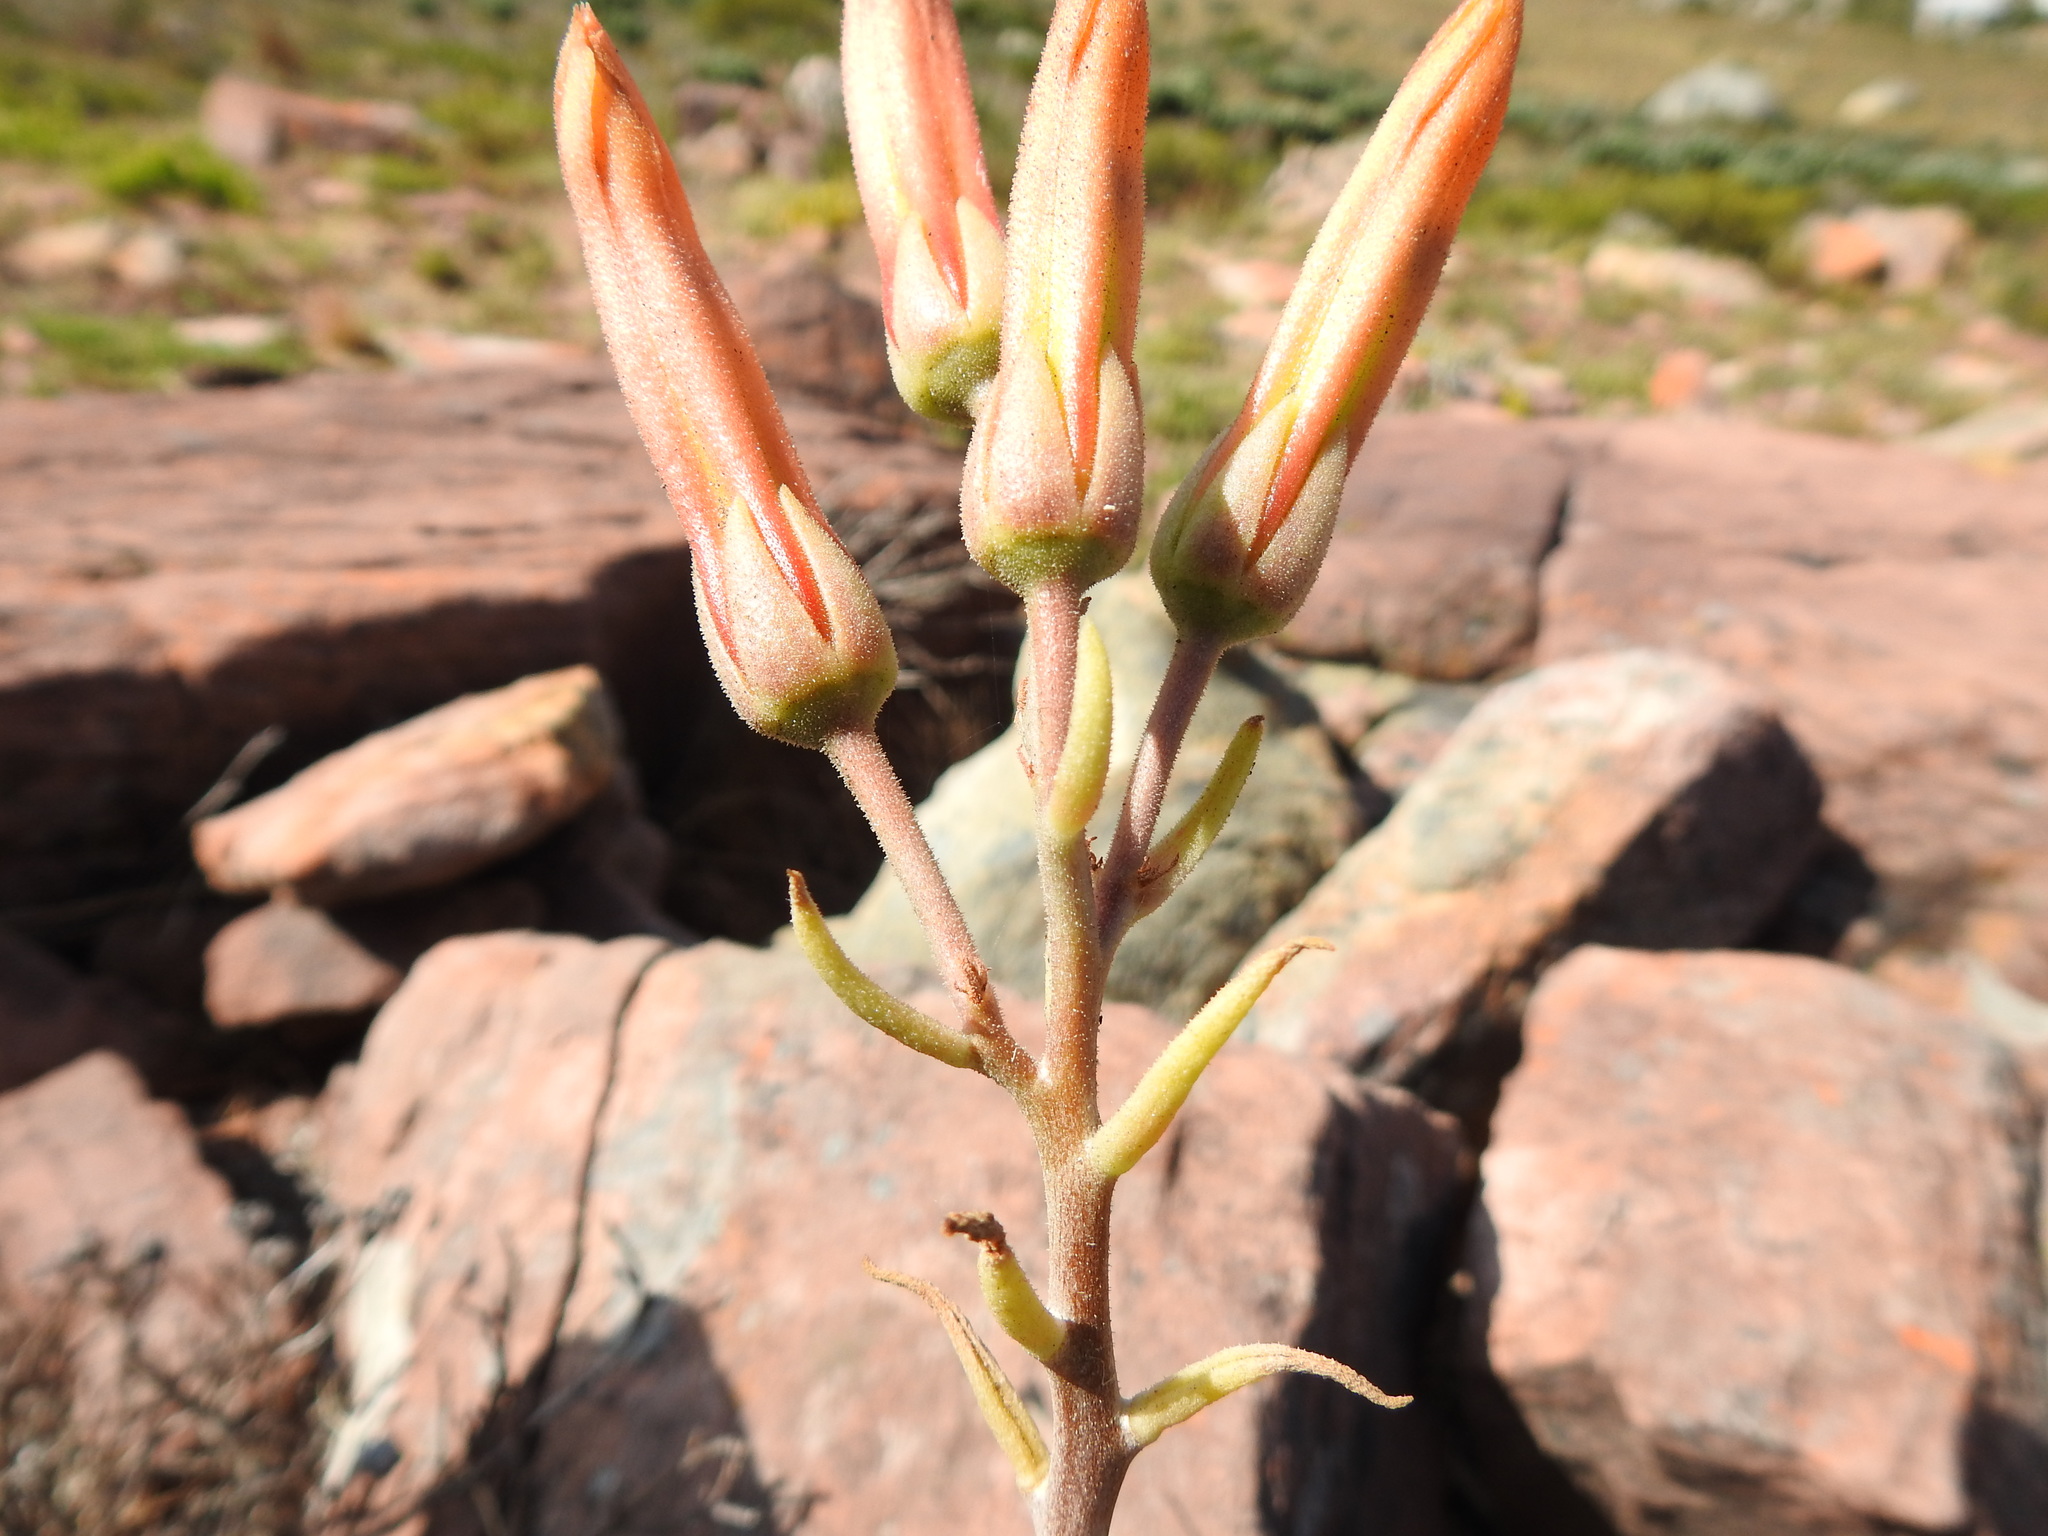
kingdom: Plantae
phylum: Tracheophyta
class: Magnoliopsida
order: Saxifragales
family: Crassulaceae
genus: Tylecodon
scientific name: Tylecodon grandiflorus
